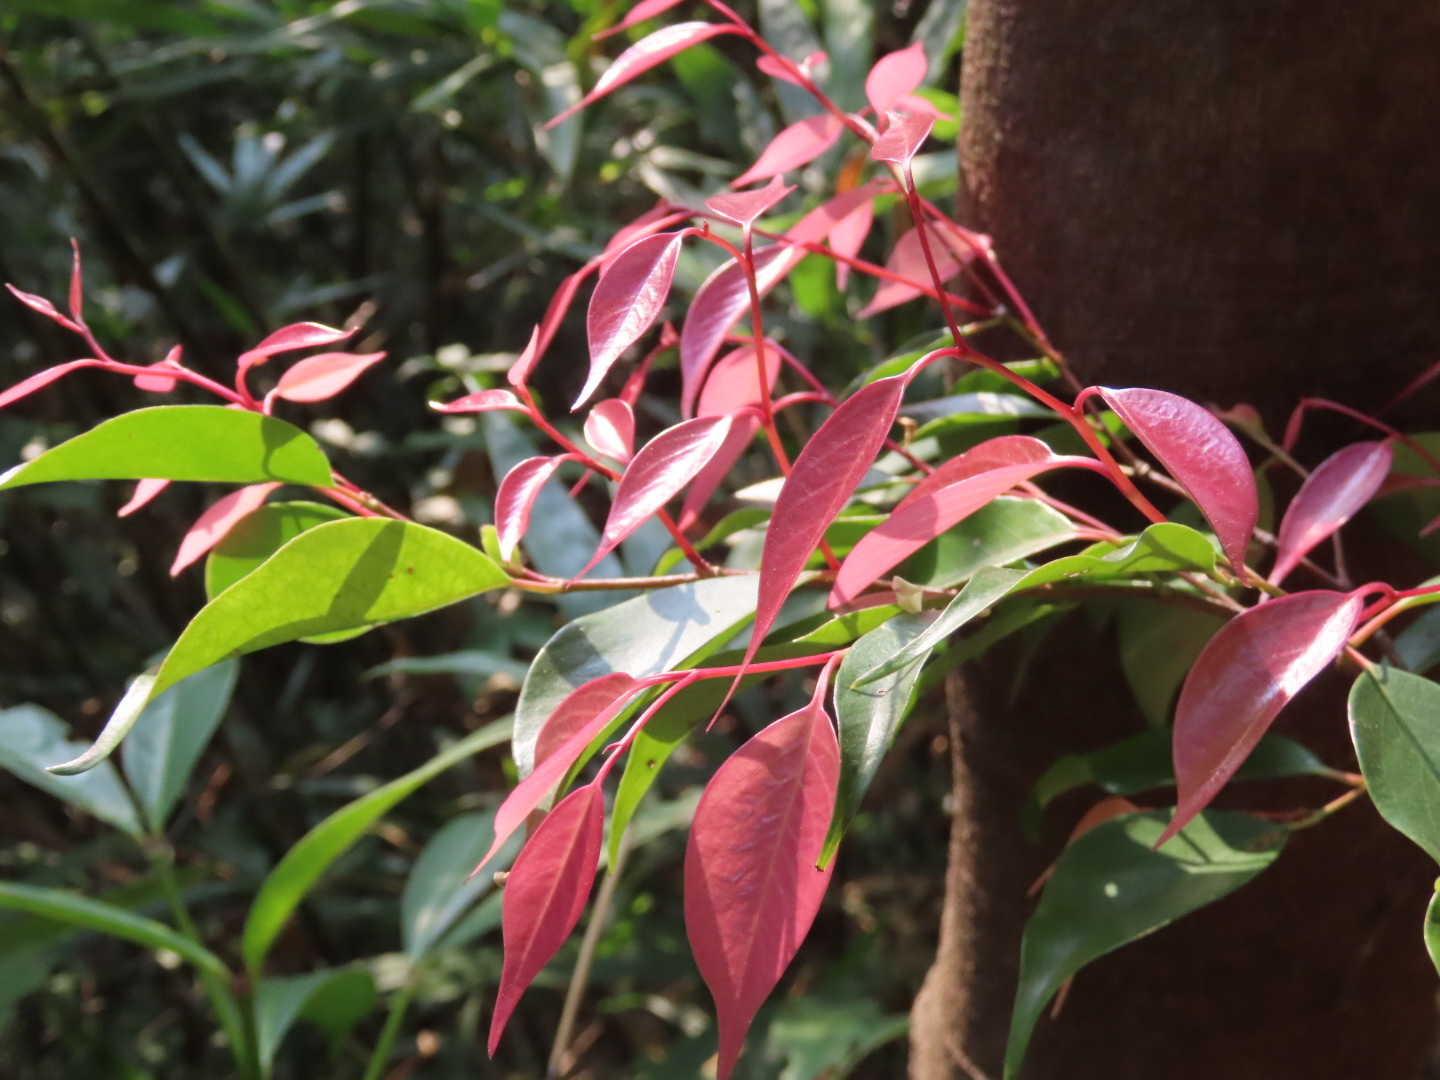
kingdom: Plantae
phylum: Tracheophyta
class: Magnoliopsida
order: Ericales
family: Pentaphylacaceae
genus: Pentaphylax
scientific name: Pentaphylax euryoides
